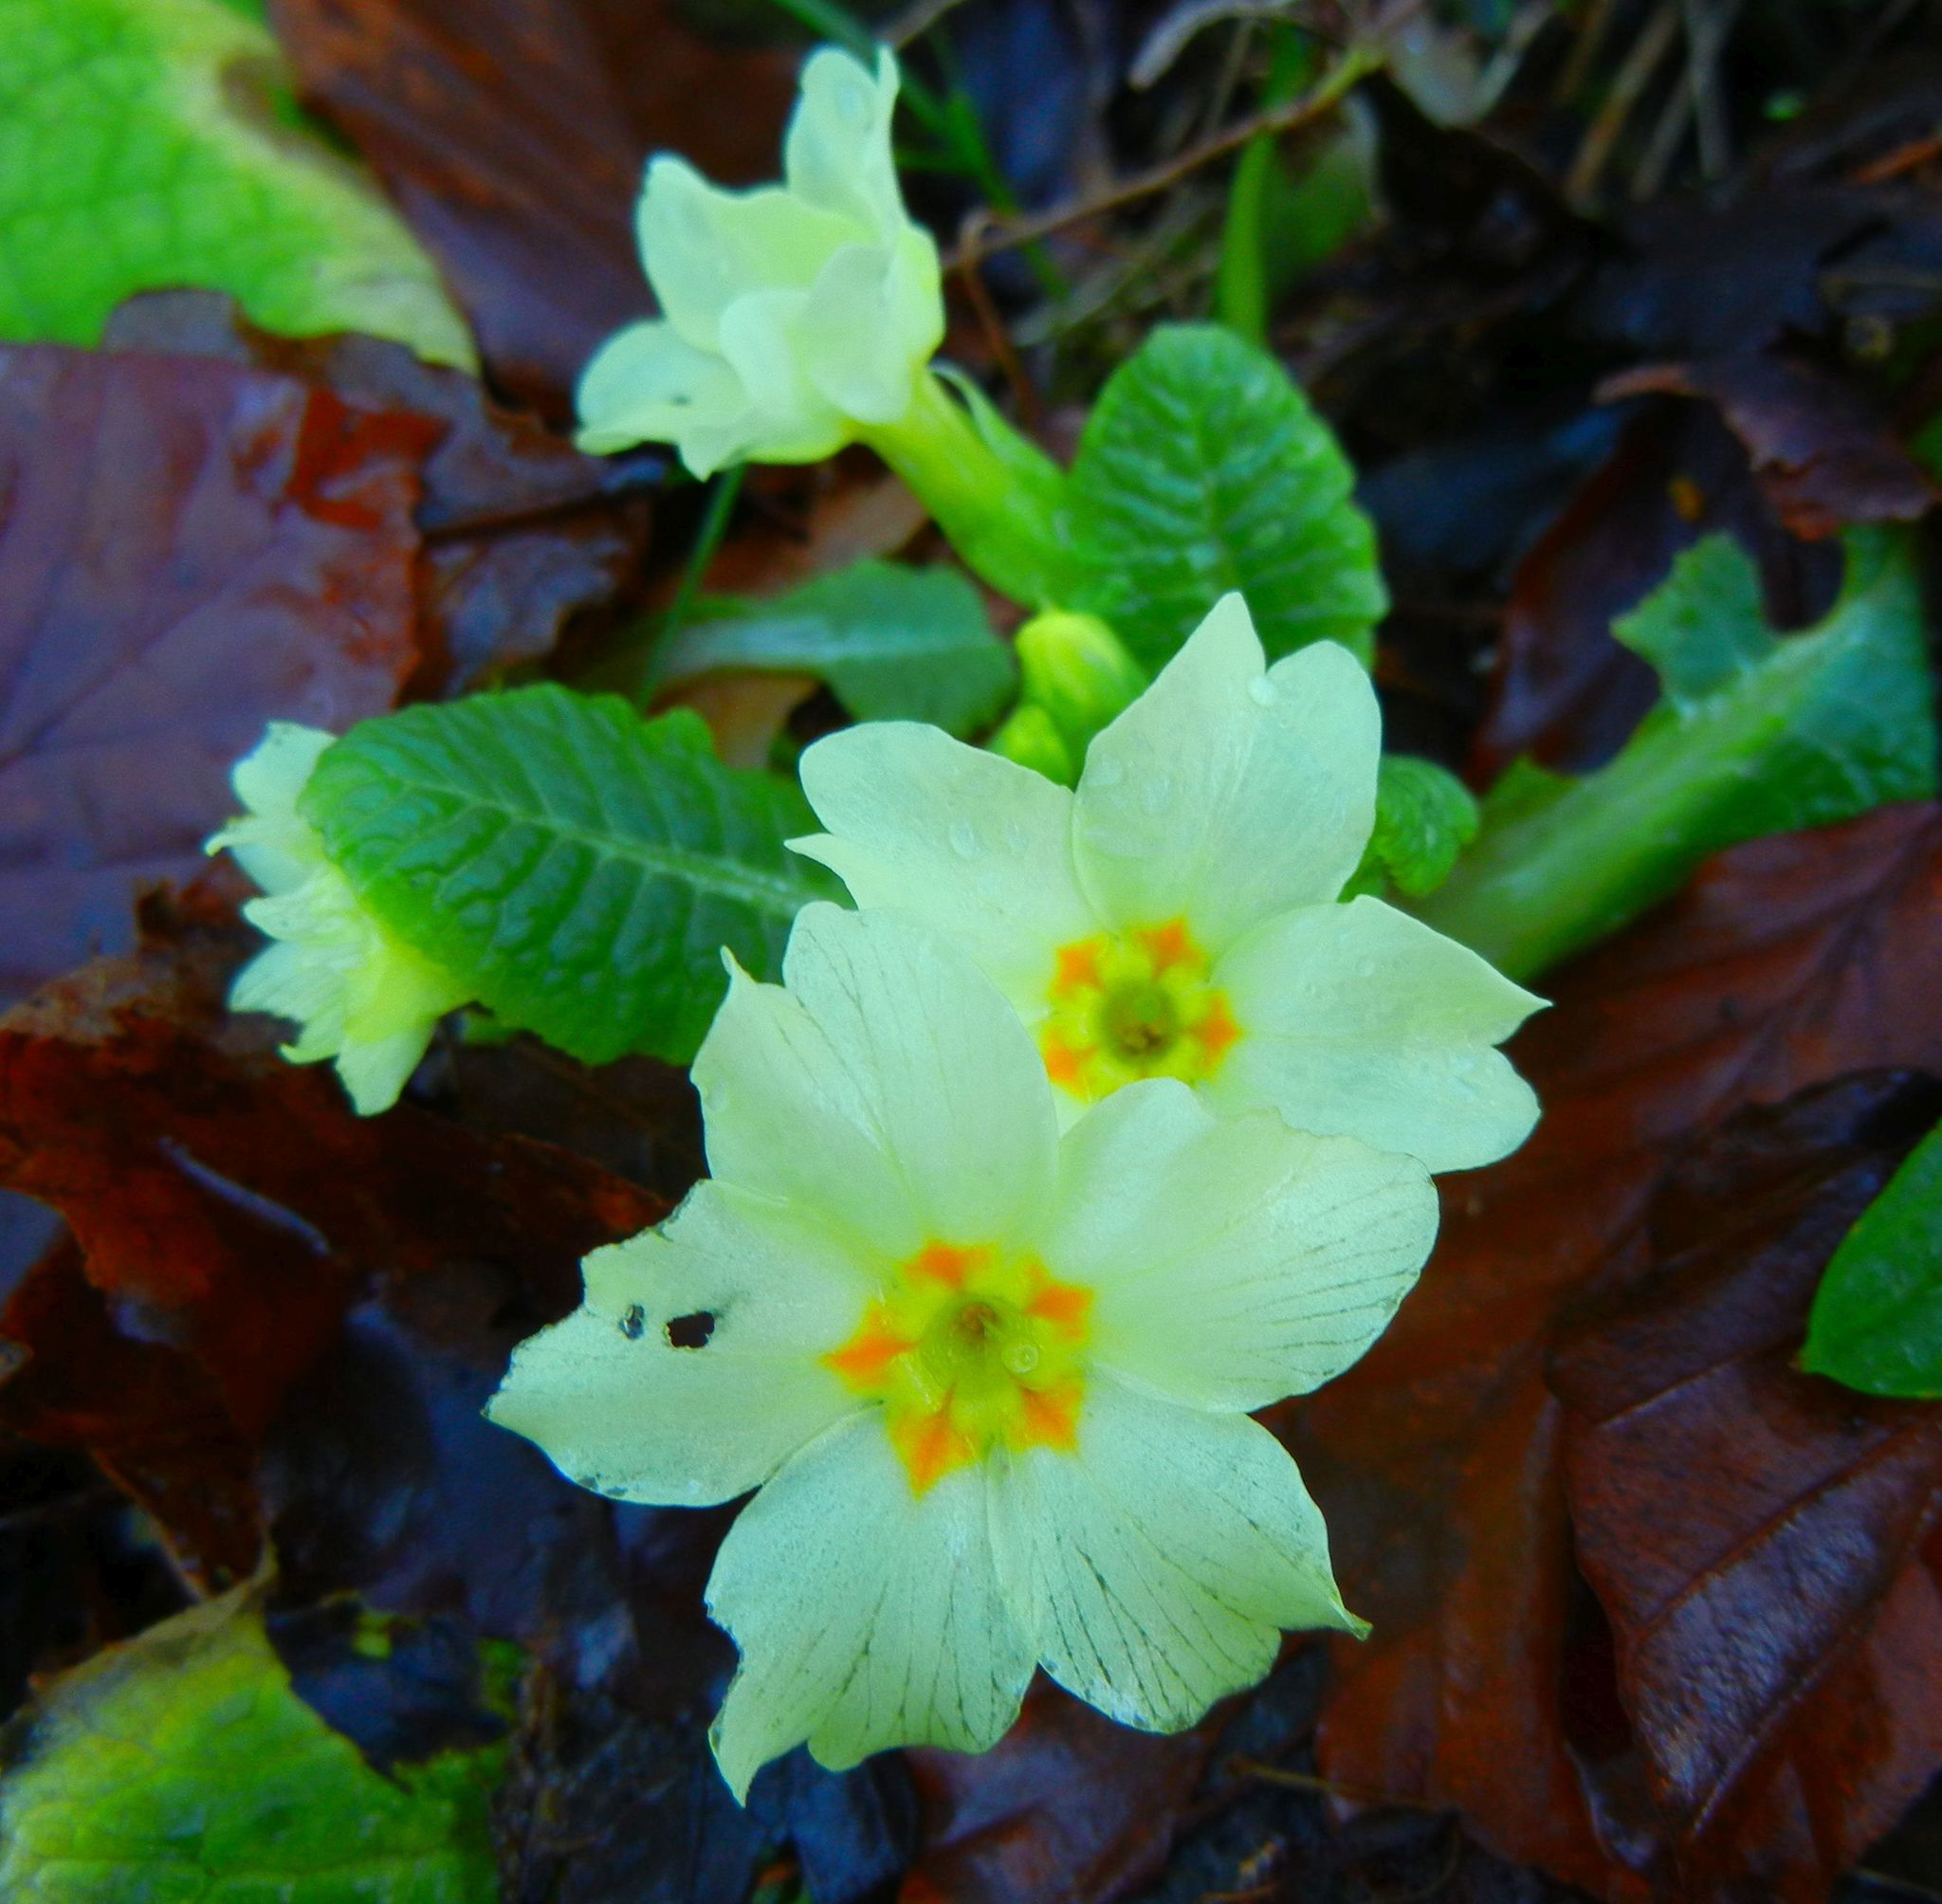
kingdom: Plantae
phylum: Tracheophyta
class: Magnoliopsida
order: Ericales
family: Primulaceae
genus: Primula
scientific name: Primula vulgaris
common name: Primrose
